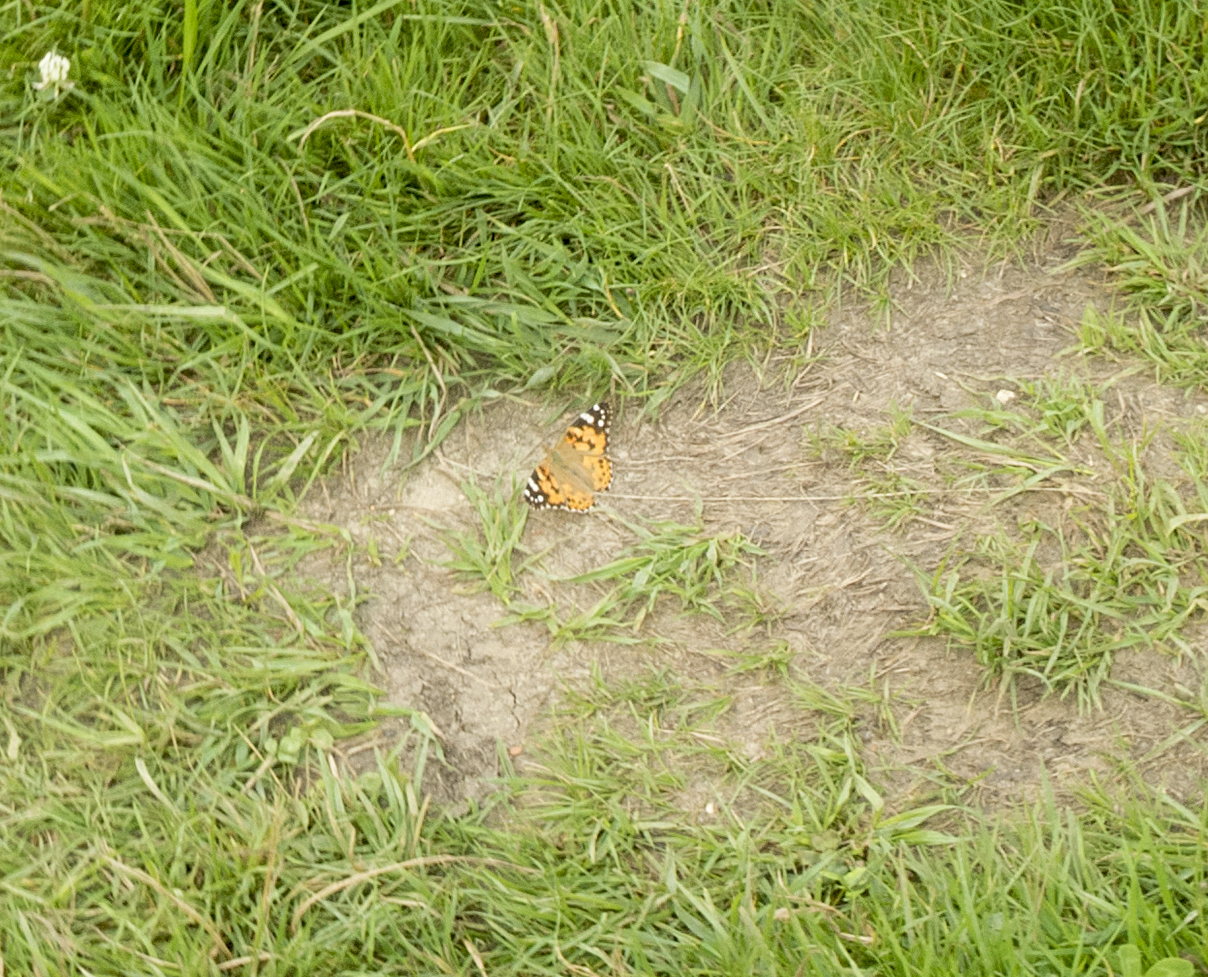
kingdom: Animalia
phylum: Arthropoda
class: Insecta
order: Lepidoptera
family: Nymphalidae
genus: Vanessa
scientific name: Vanessa cardui
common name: Painted lady
